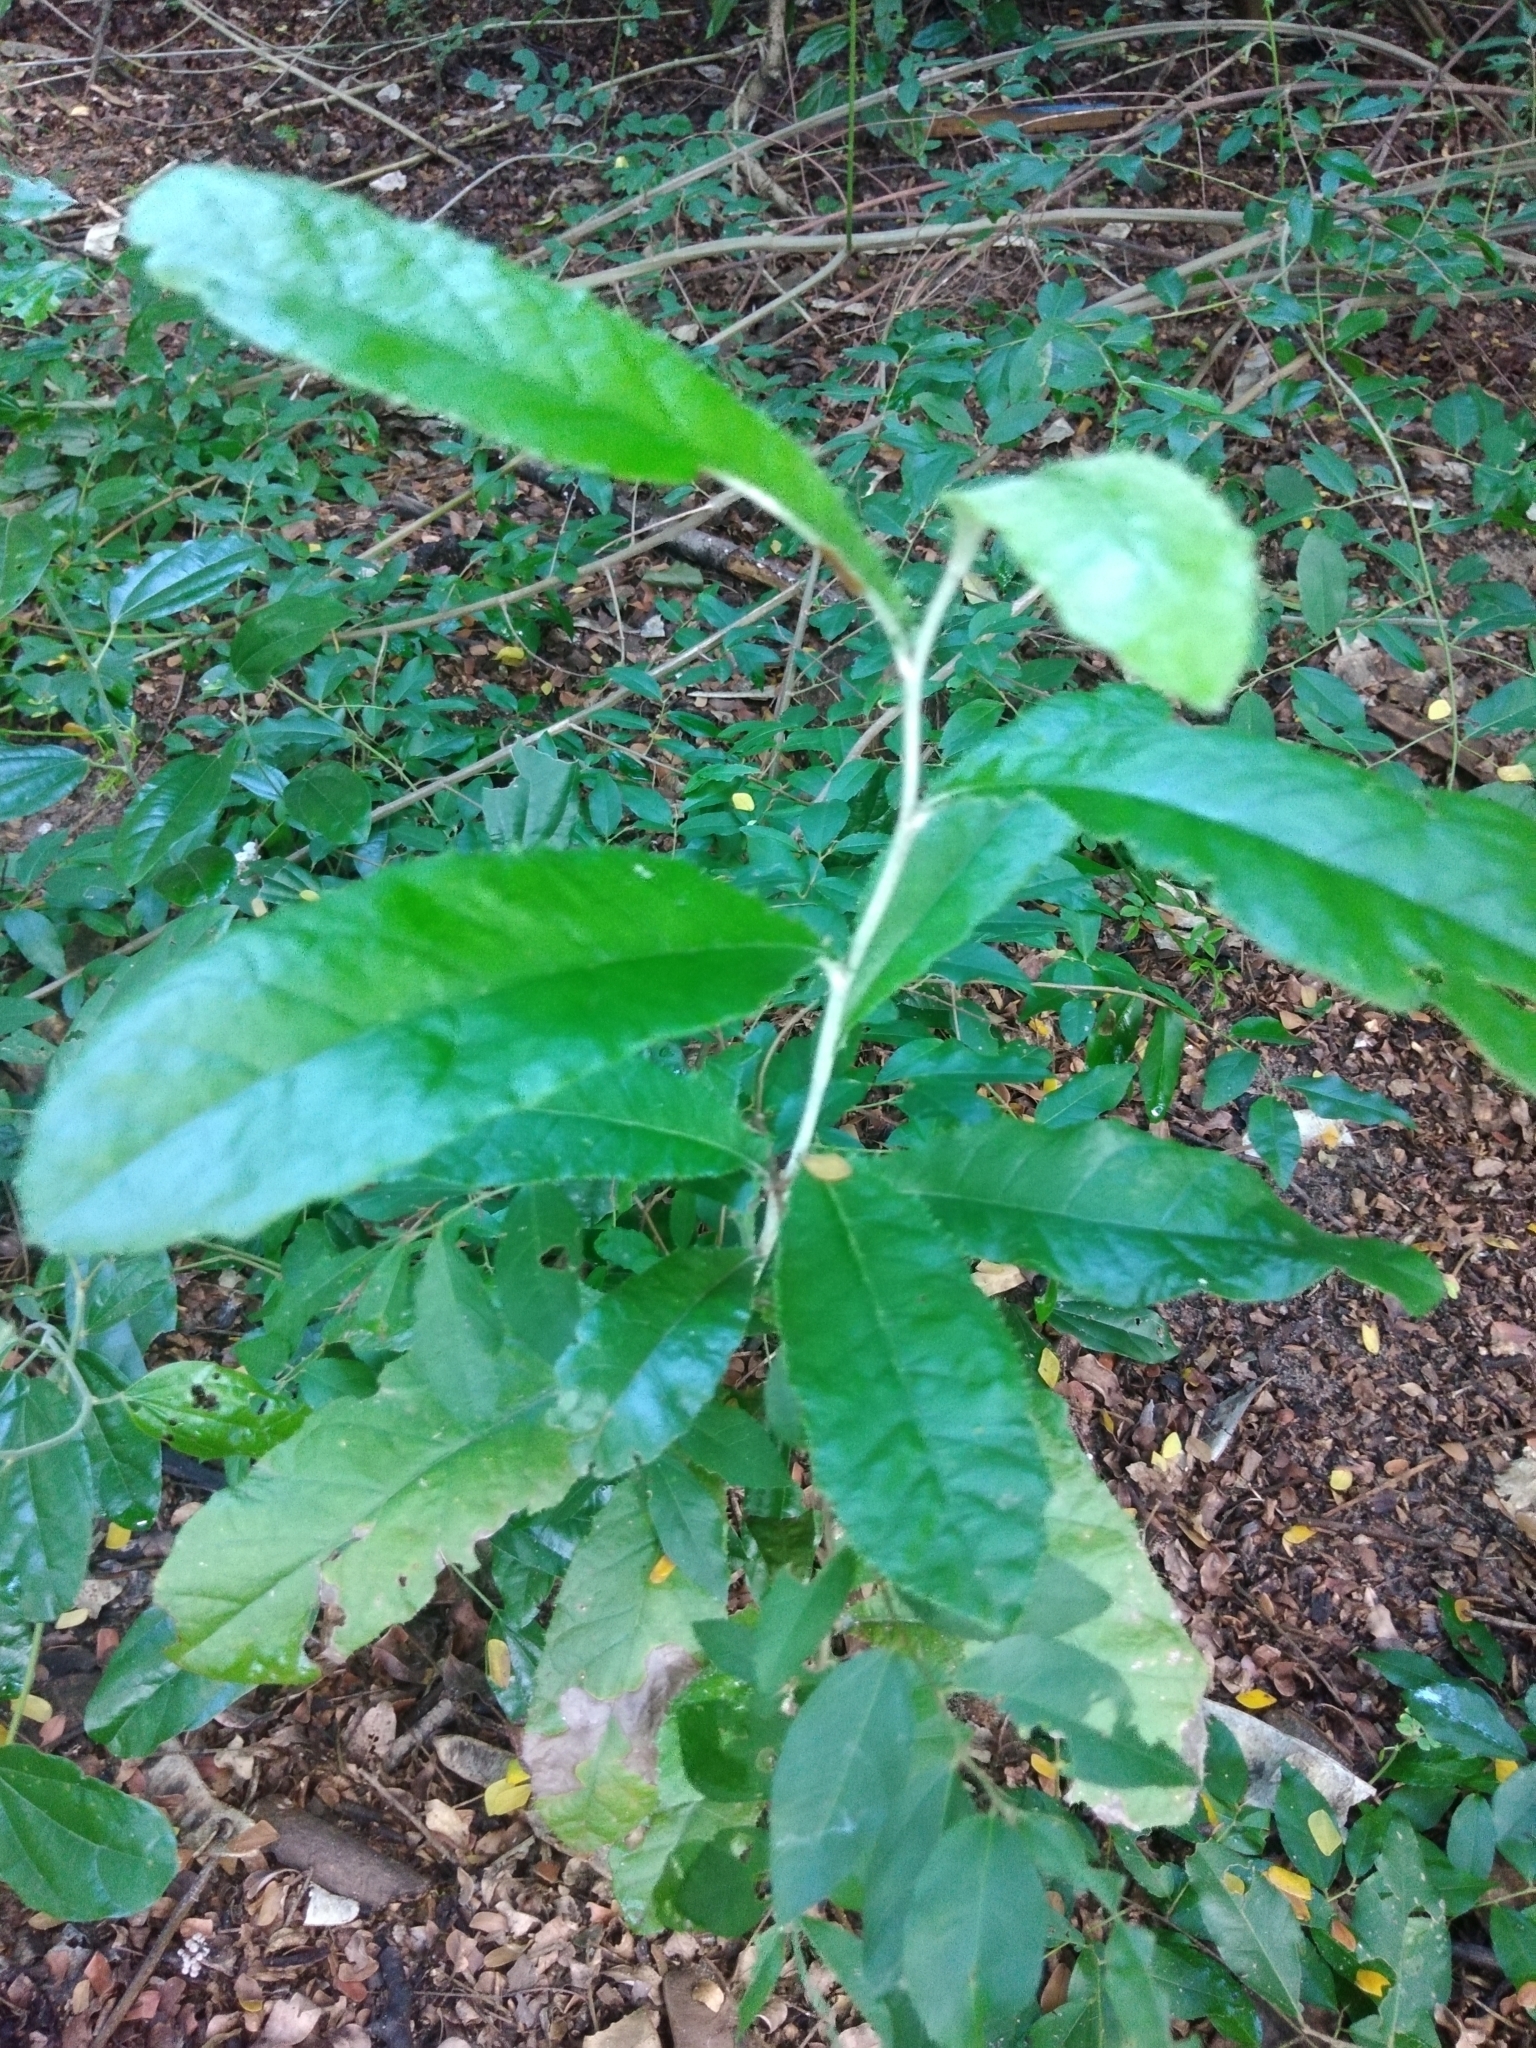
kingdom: Plantae
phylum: Tracheophyta
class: Magnoliopsida
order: Asterales
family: Asteraceae
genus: Brachylaena
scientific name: Brachylaena discolor
